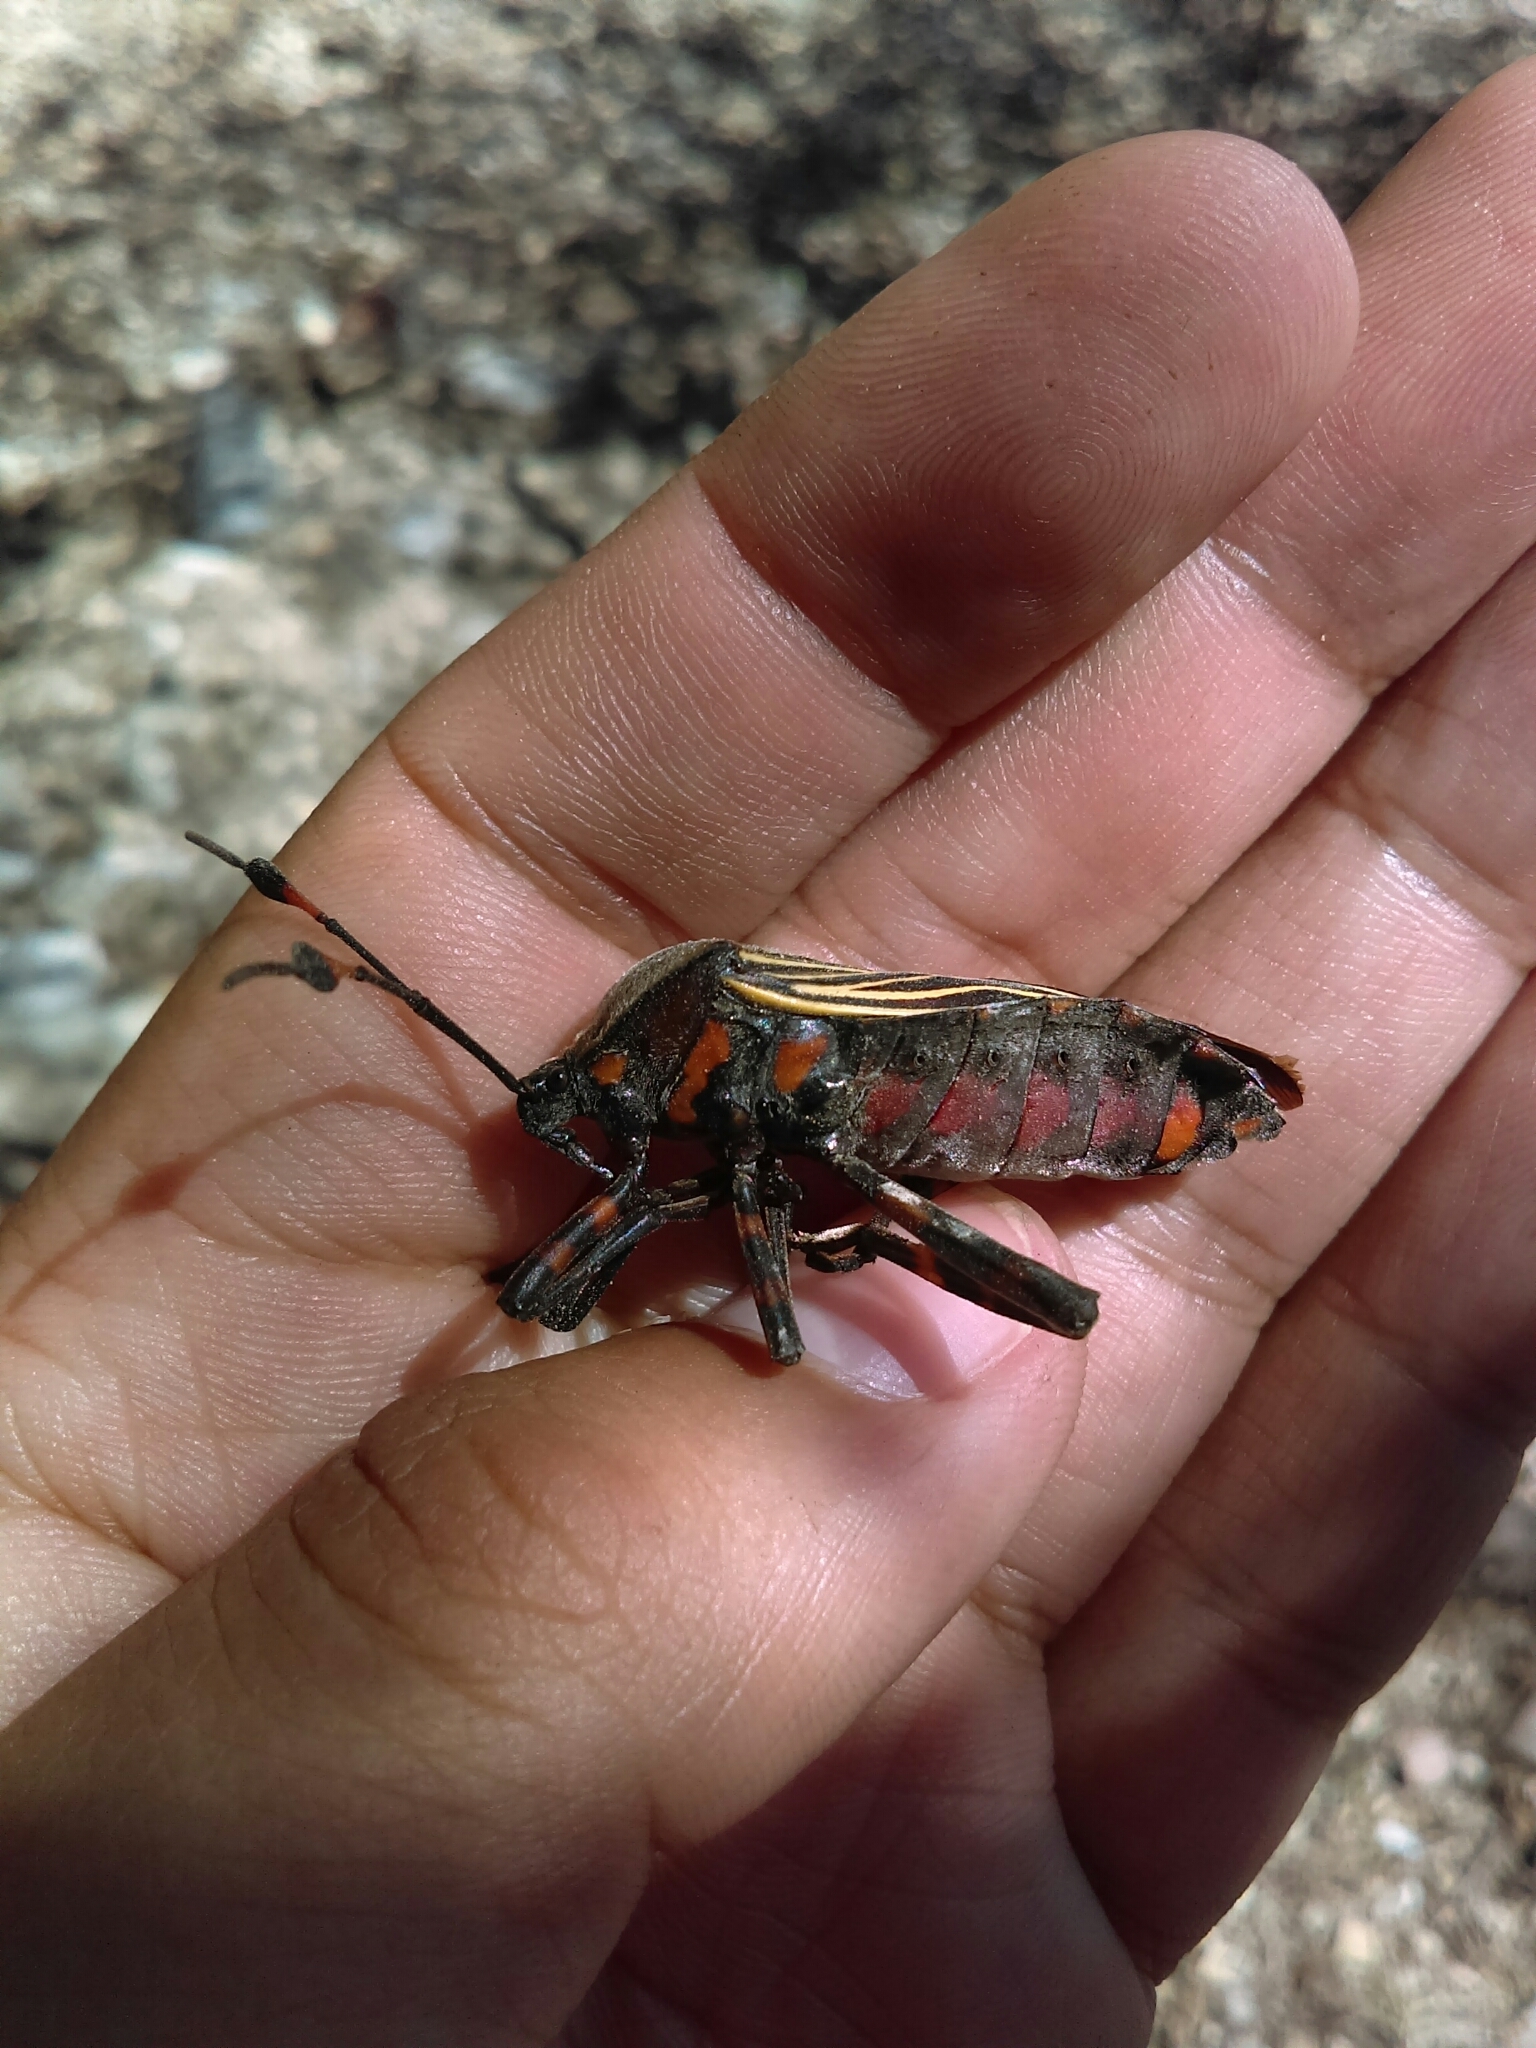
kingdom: Animalia
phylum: Arthropoda
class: Insecta
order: Hemiptera
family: Coreidae
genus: Thasus
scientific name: Thasus
